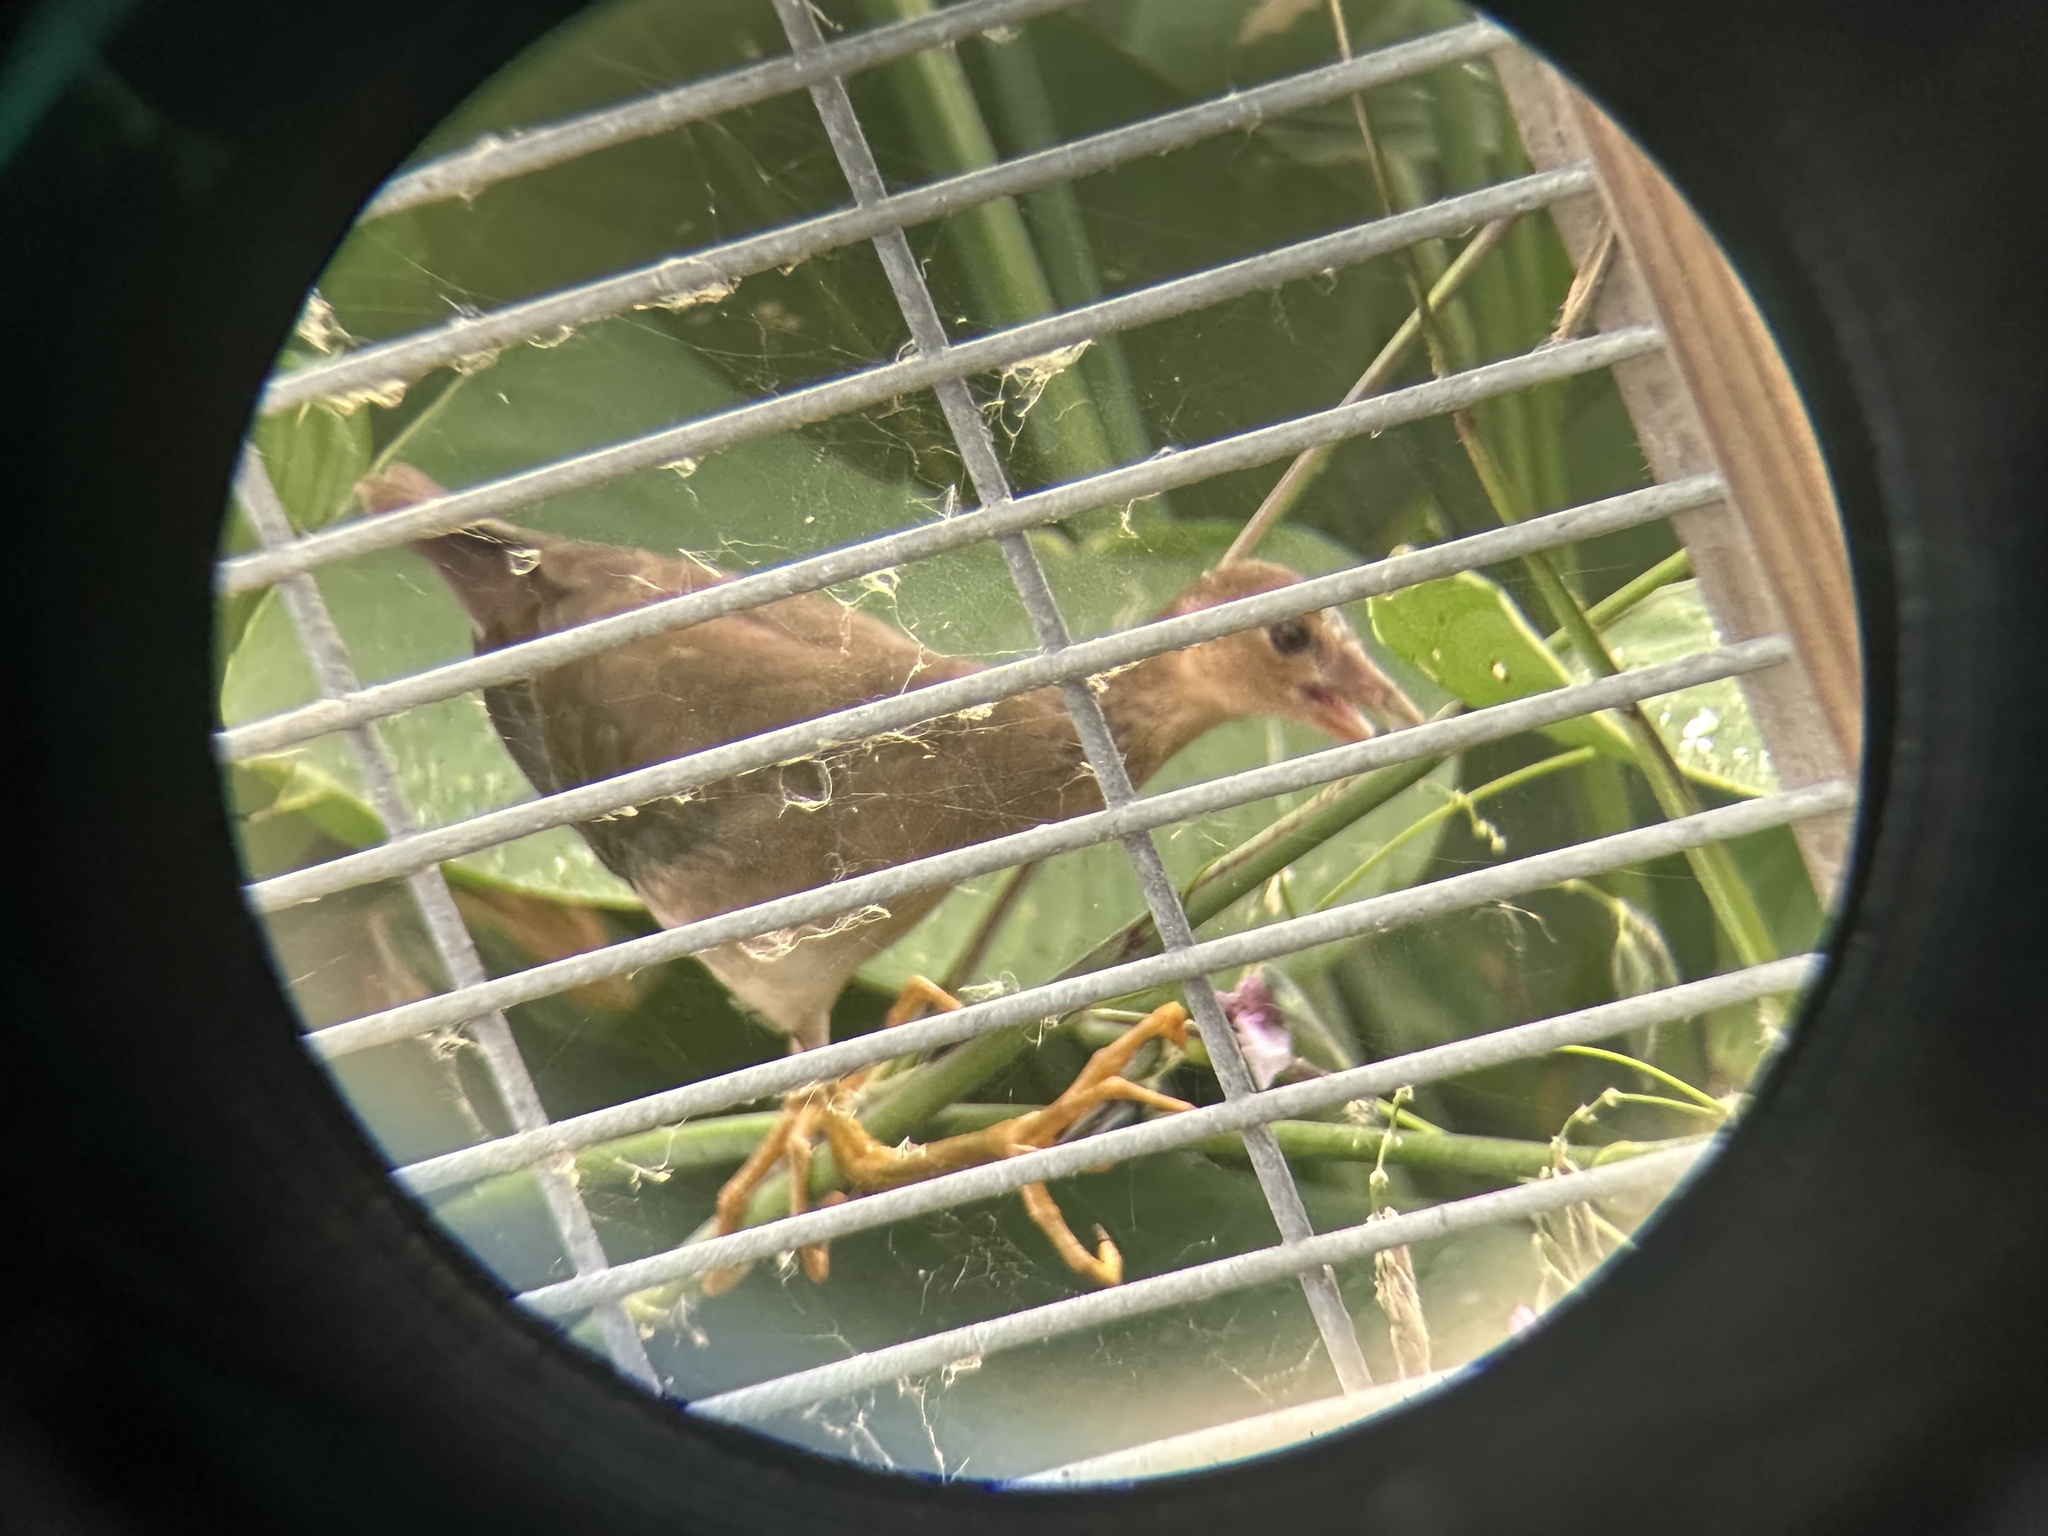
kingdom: Animalia
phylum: Chordata
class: Aves
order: Gruiformes
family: Rallidae
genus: Porphyrio
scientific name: Porphyrio martinica
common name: Purple gallinule
